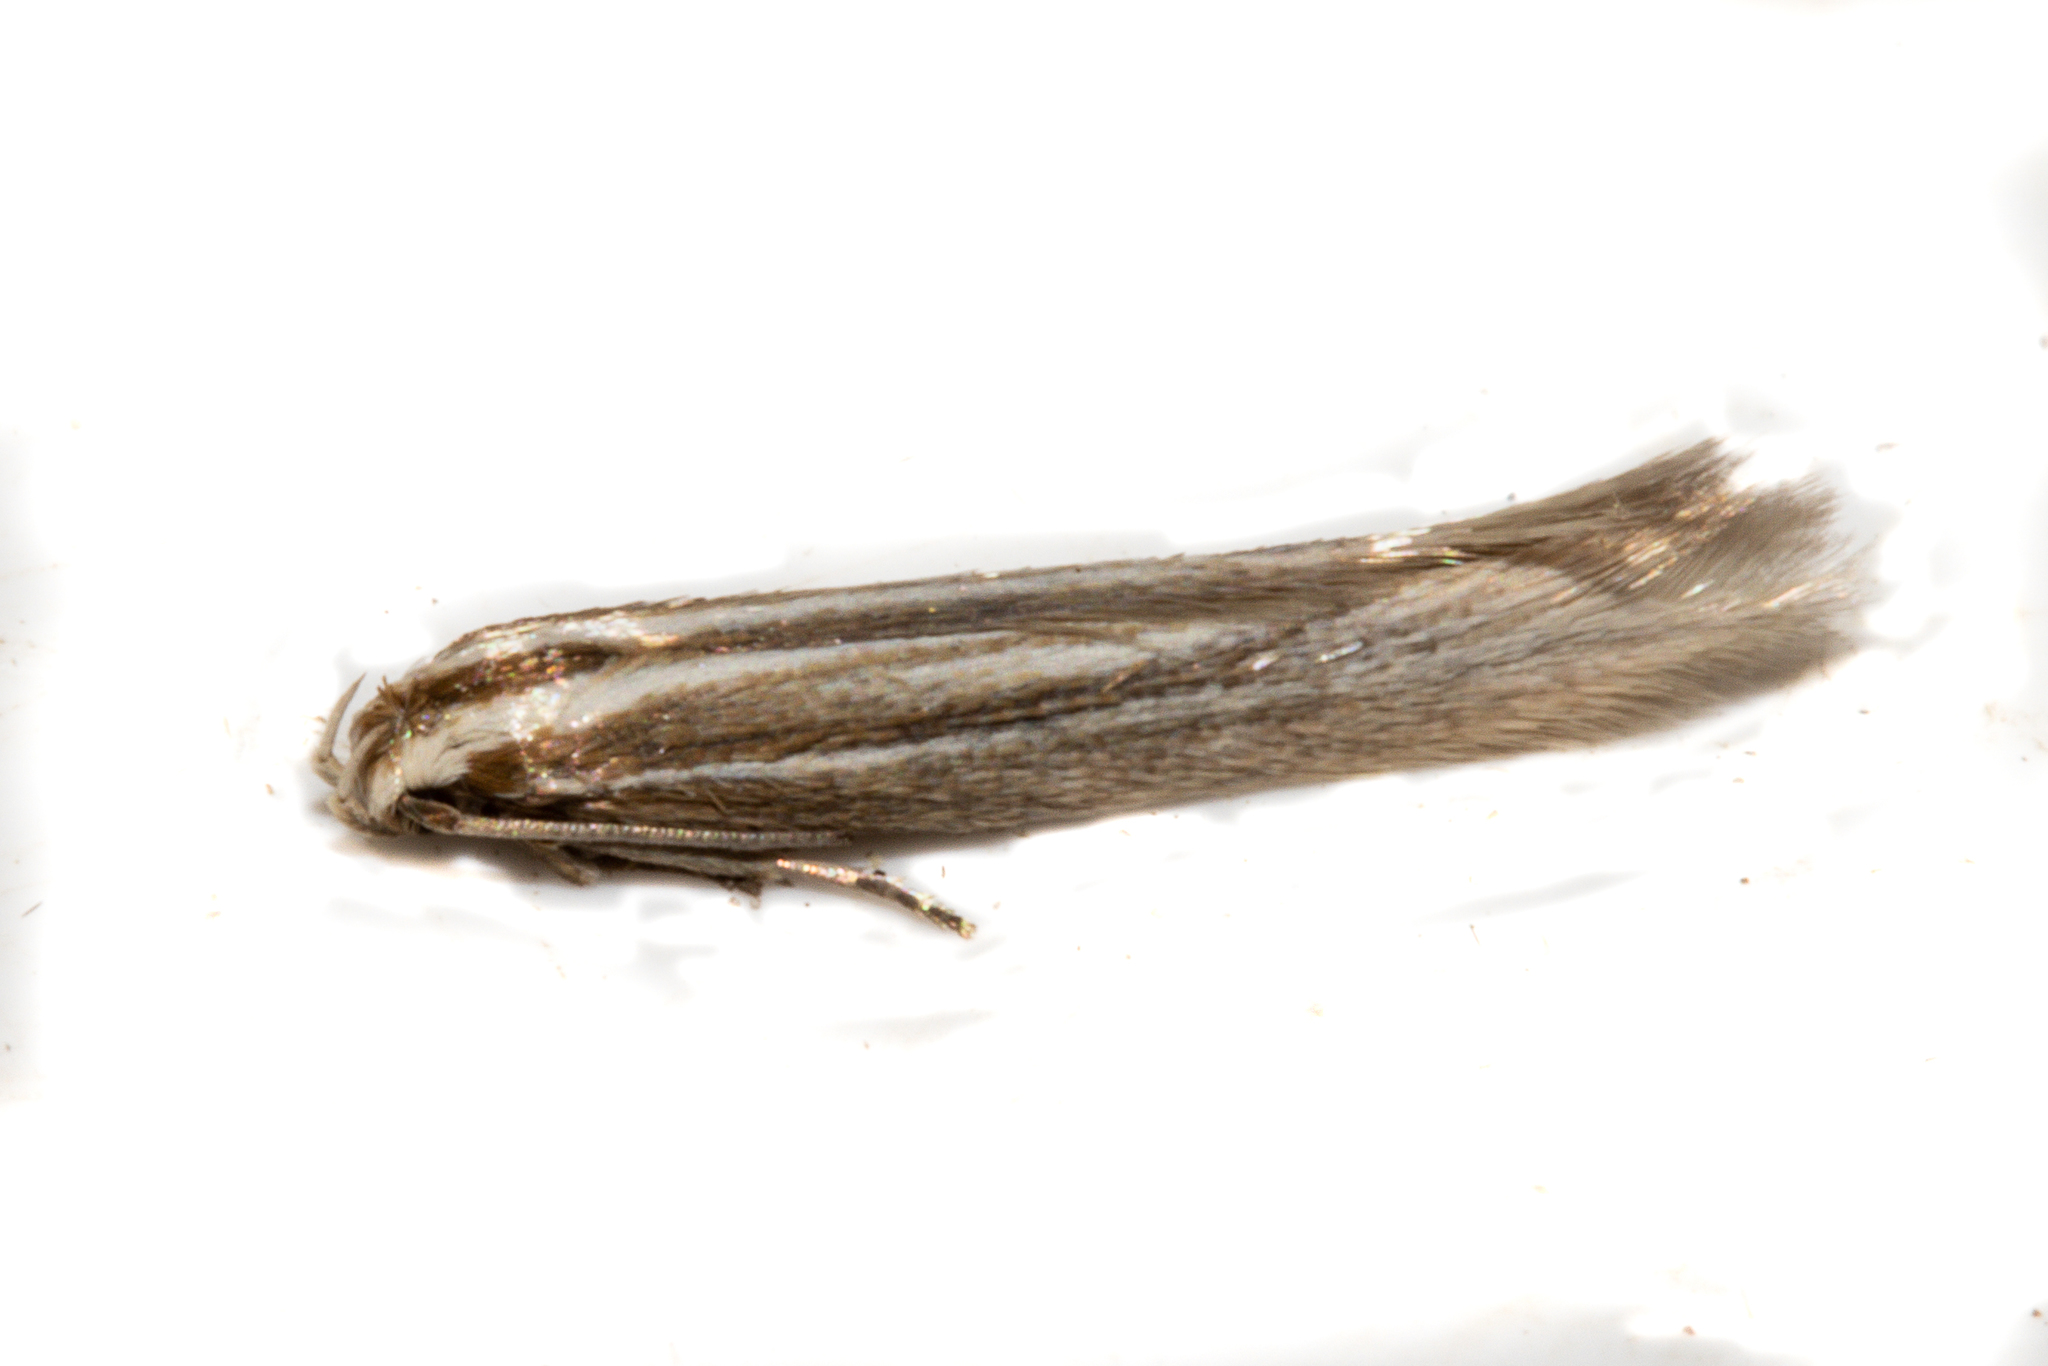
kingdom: Animalia
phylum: Arthropoda
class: Insecta
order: Lepidoptera
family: Elachistidae
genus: Elachista
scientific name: Elachista thallophora
